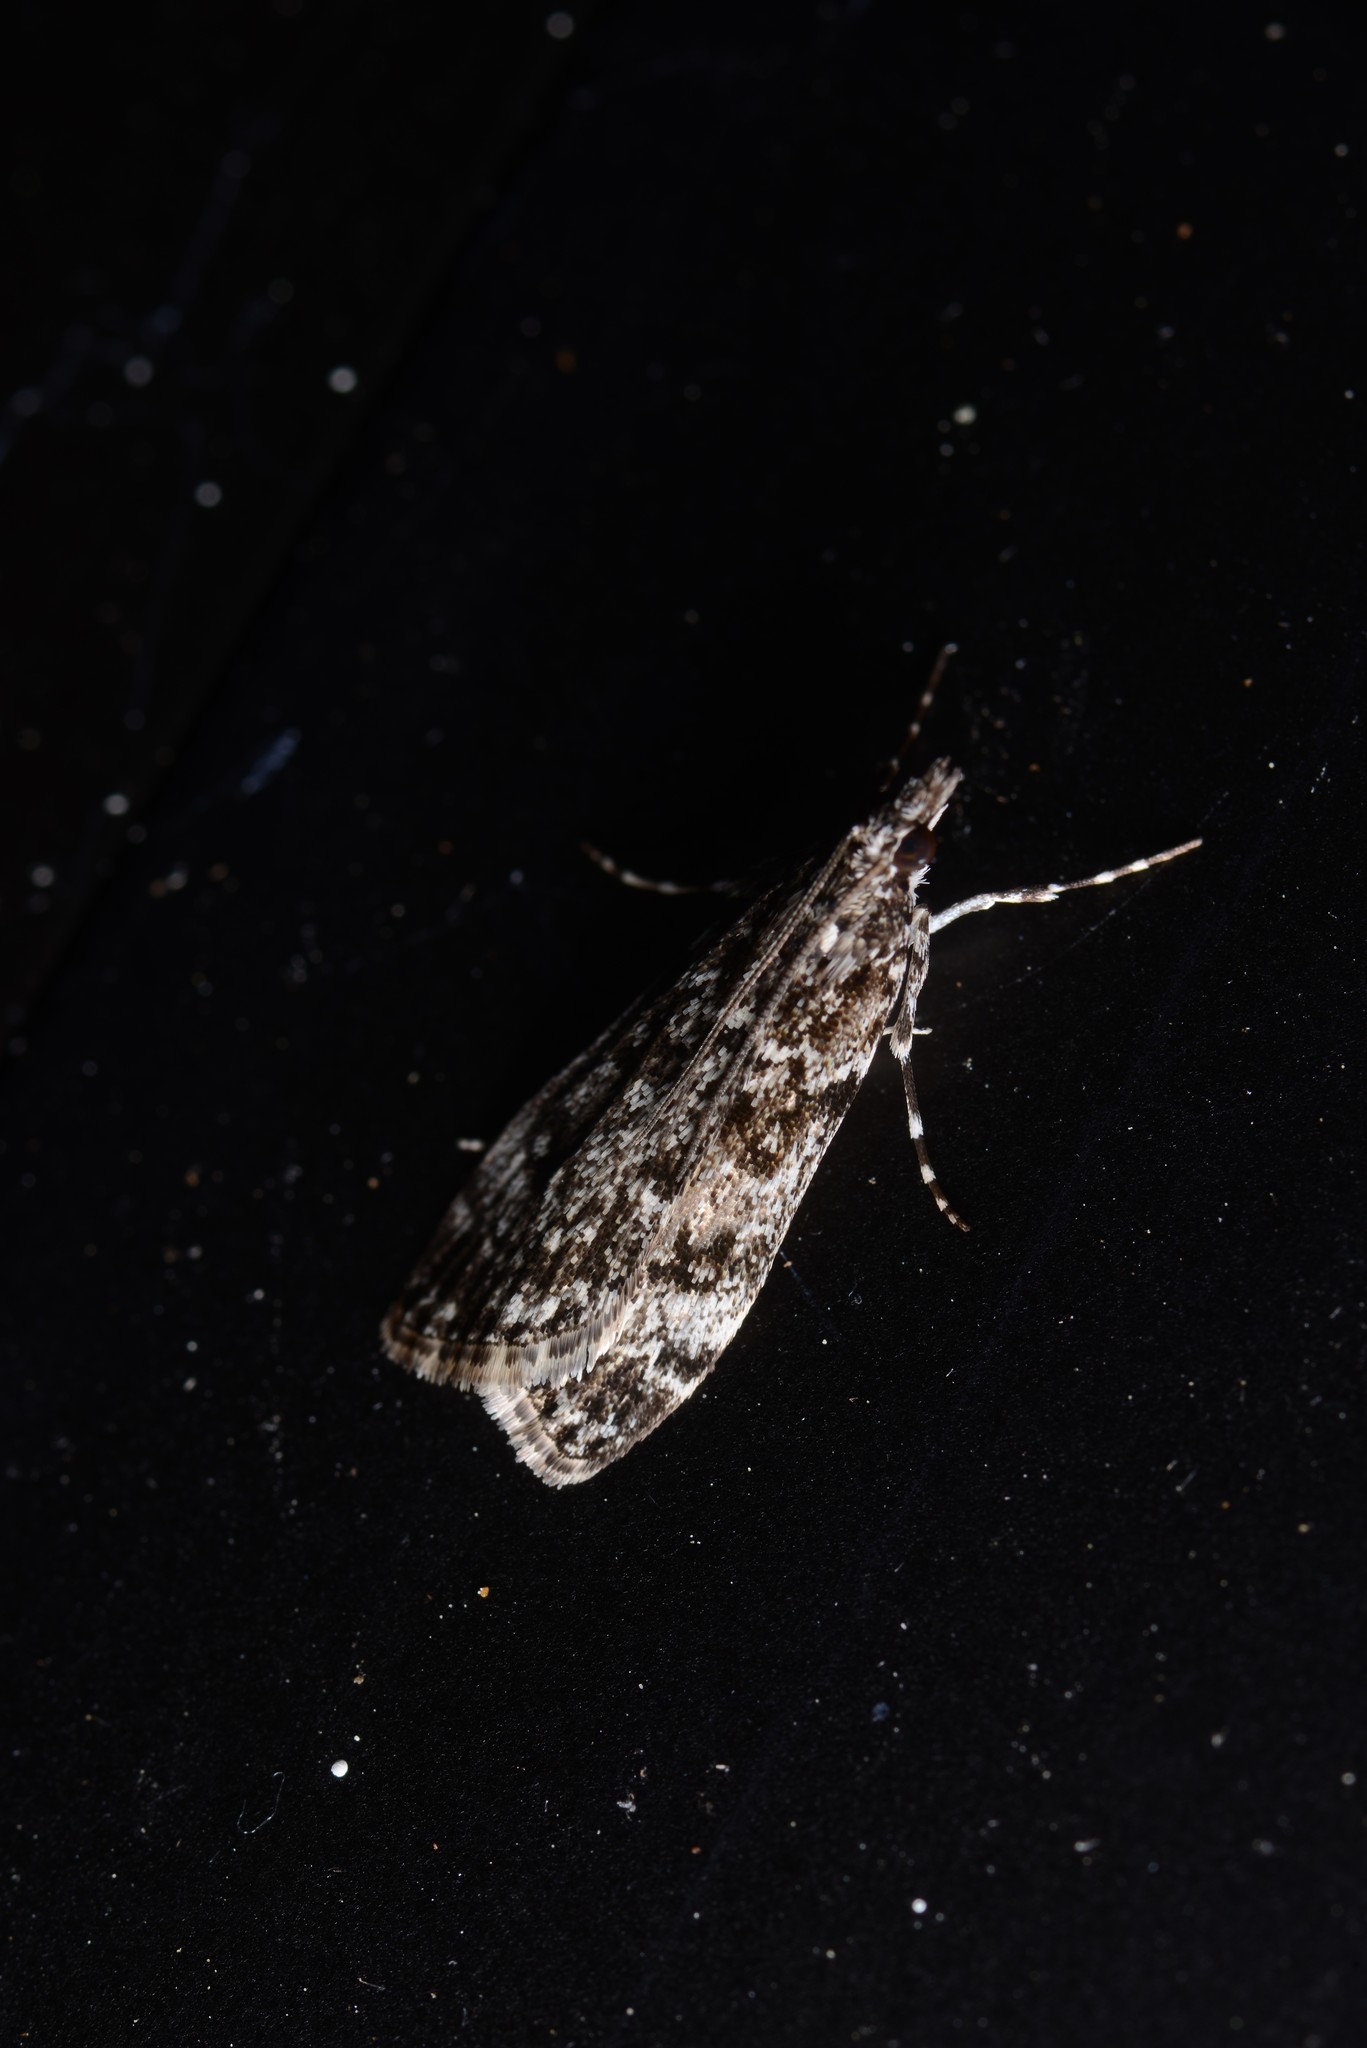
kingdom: Animalia
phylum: Arthropoda
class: Insecta
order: Lepidoptera
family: Crambidae
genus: Eudonia
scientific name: Eudonia philerga
